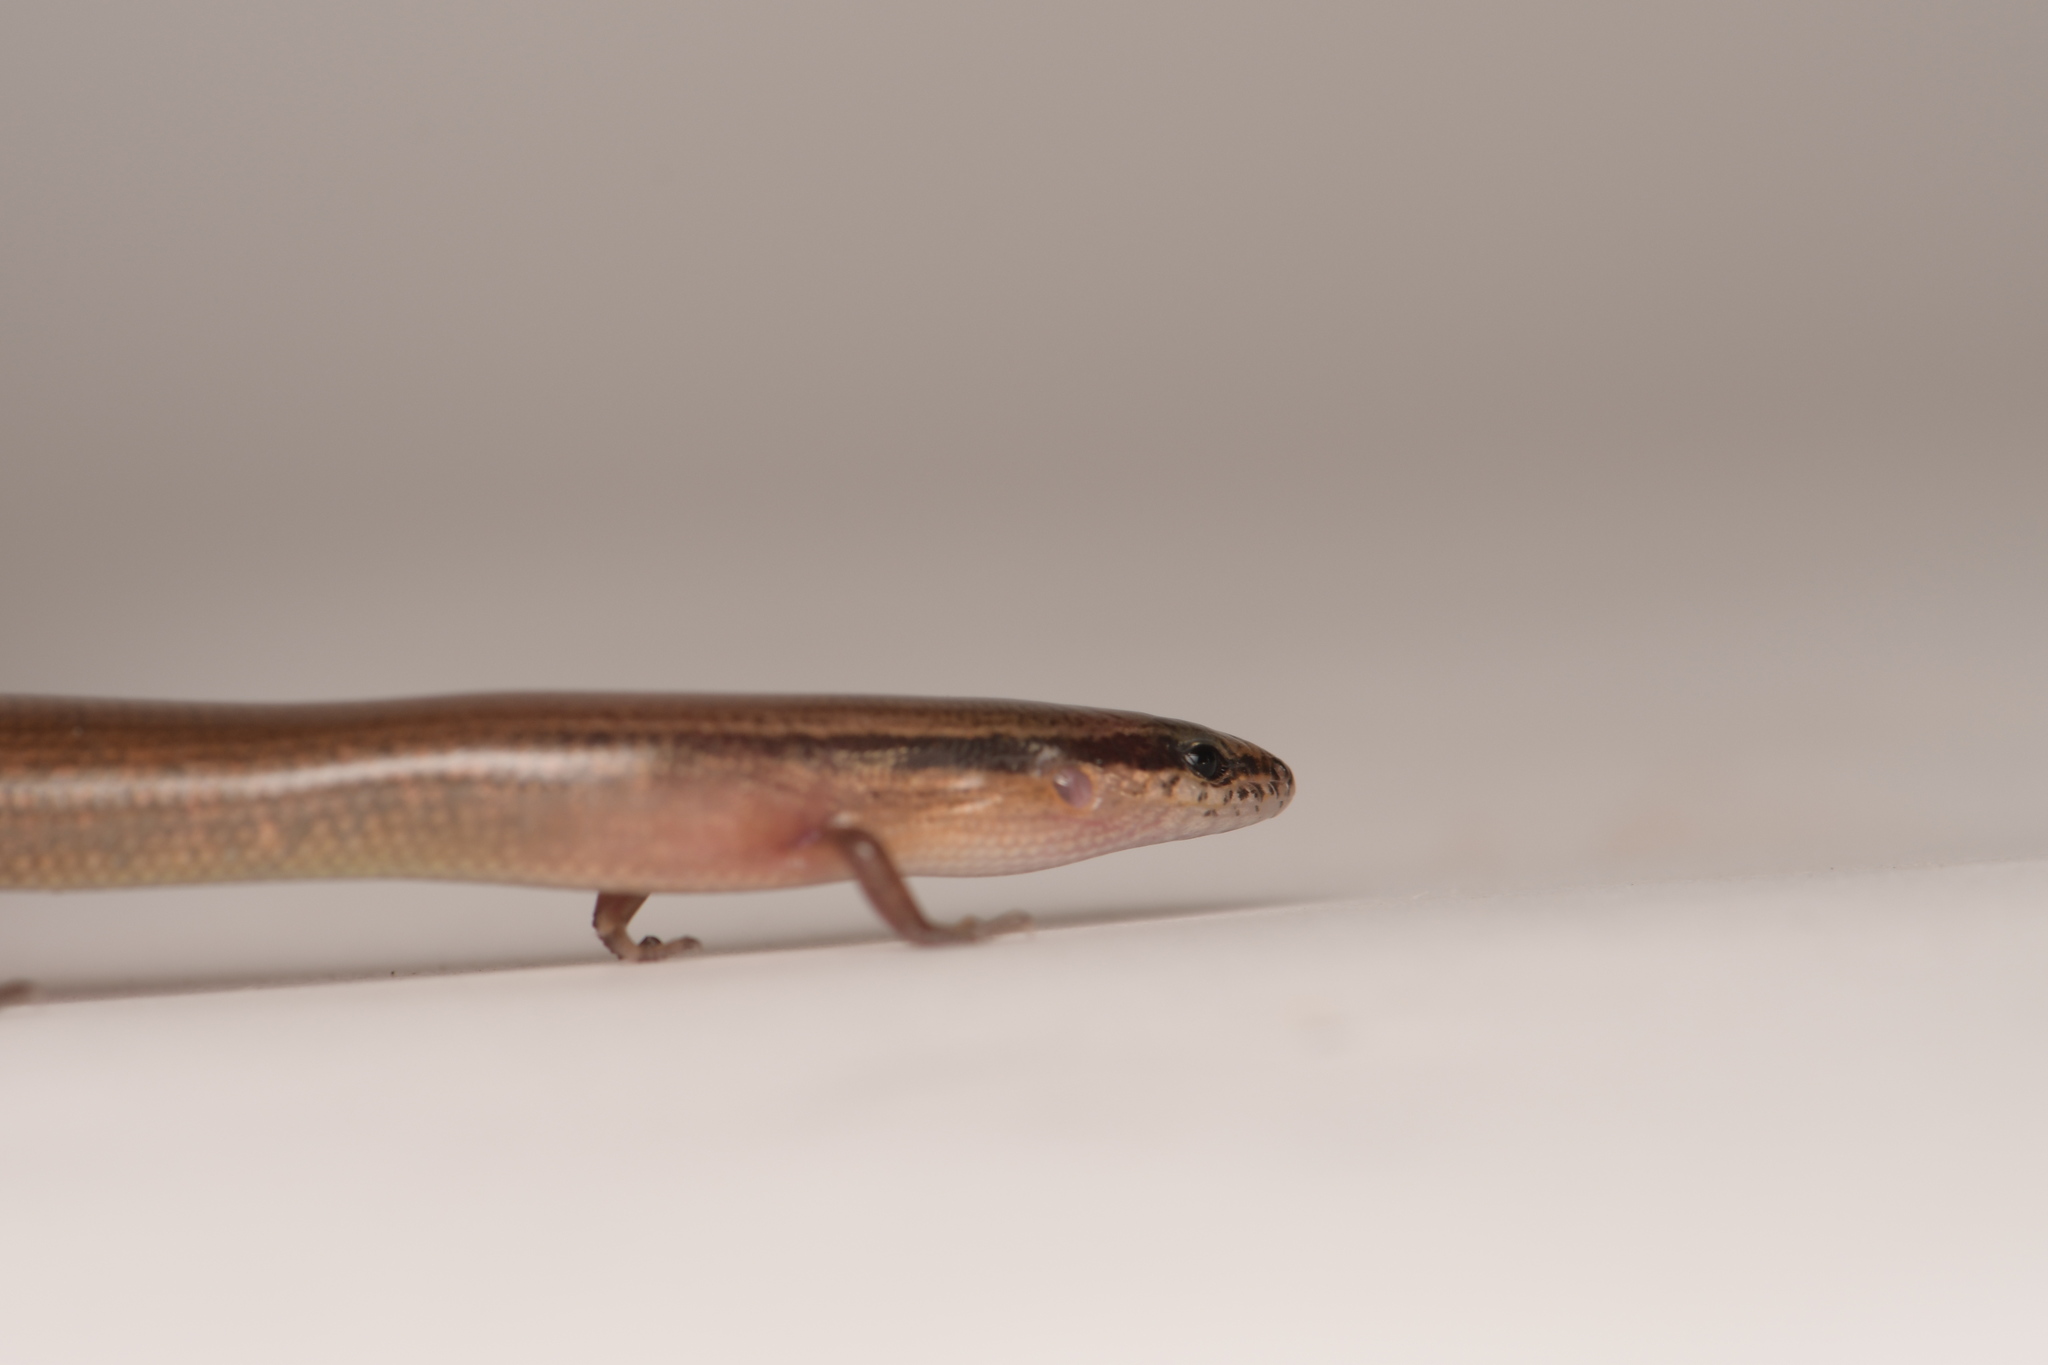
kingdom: Animalia
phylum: Chordata
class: Squamata
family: Scincidae
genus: Scincella
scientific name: Scincella assata
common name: Ground skink
